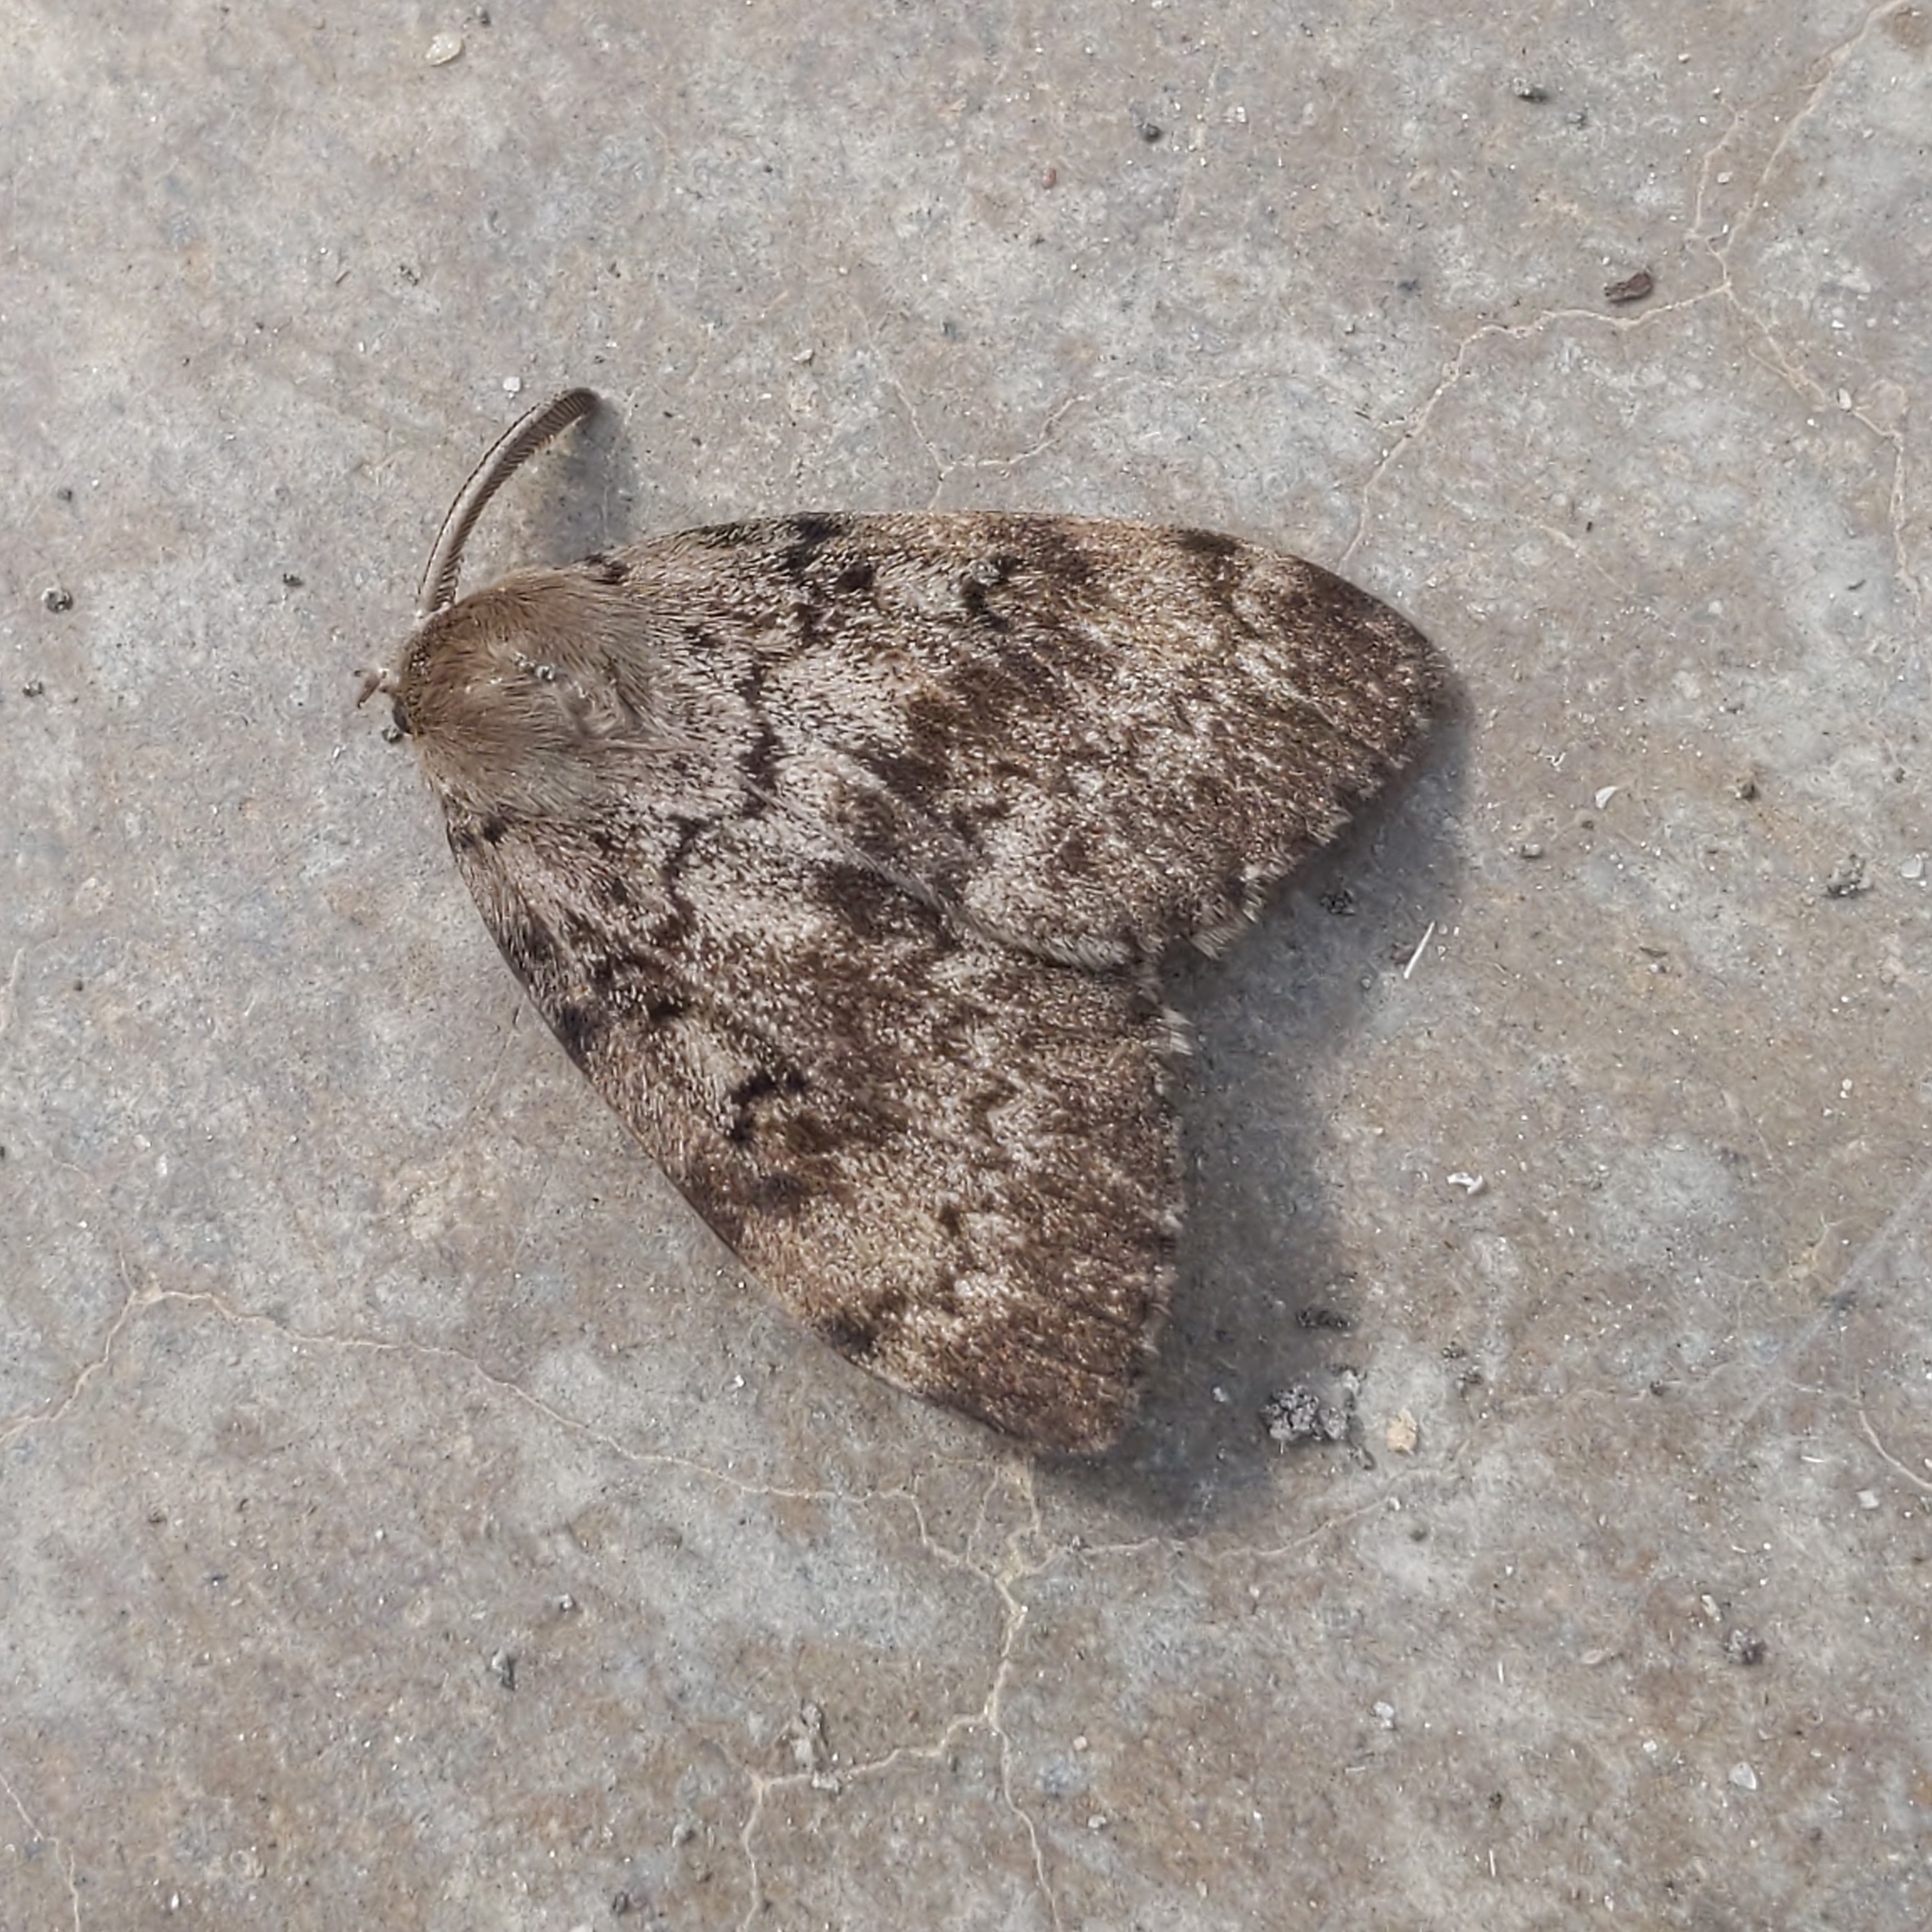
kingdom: Animalia
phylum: Arthropoda
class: Insecta
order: Lepidoptera
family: Erebidae
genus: Lymantria
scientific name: Lymantria dispar
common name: Gypsy moth
